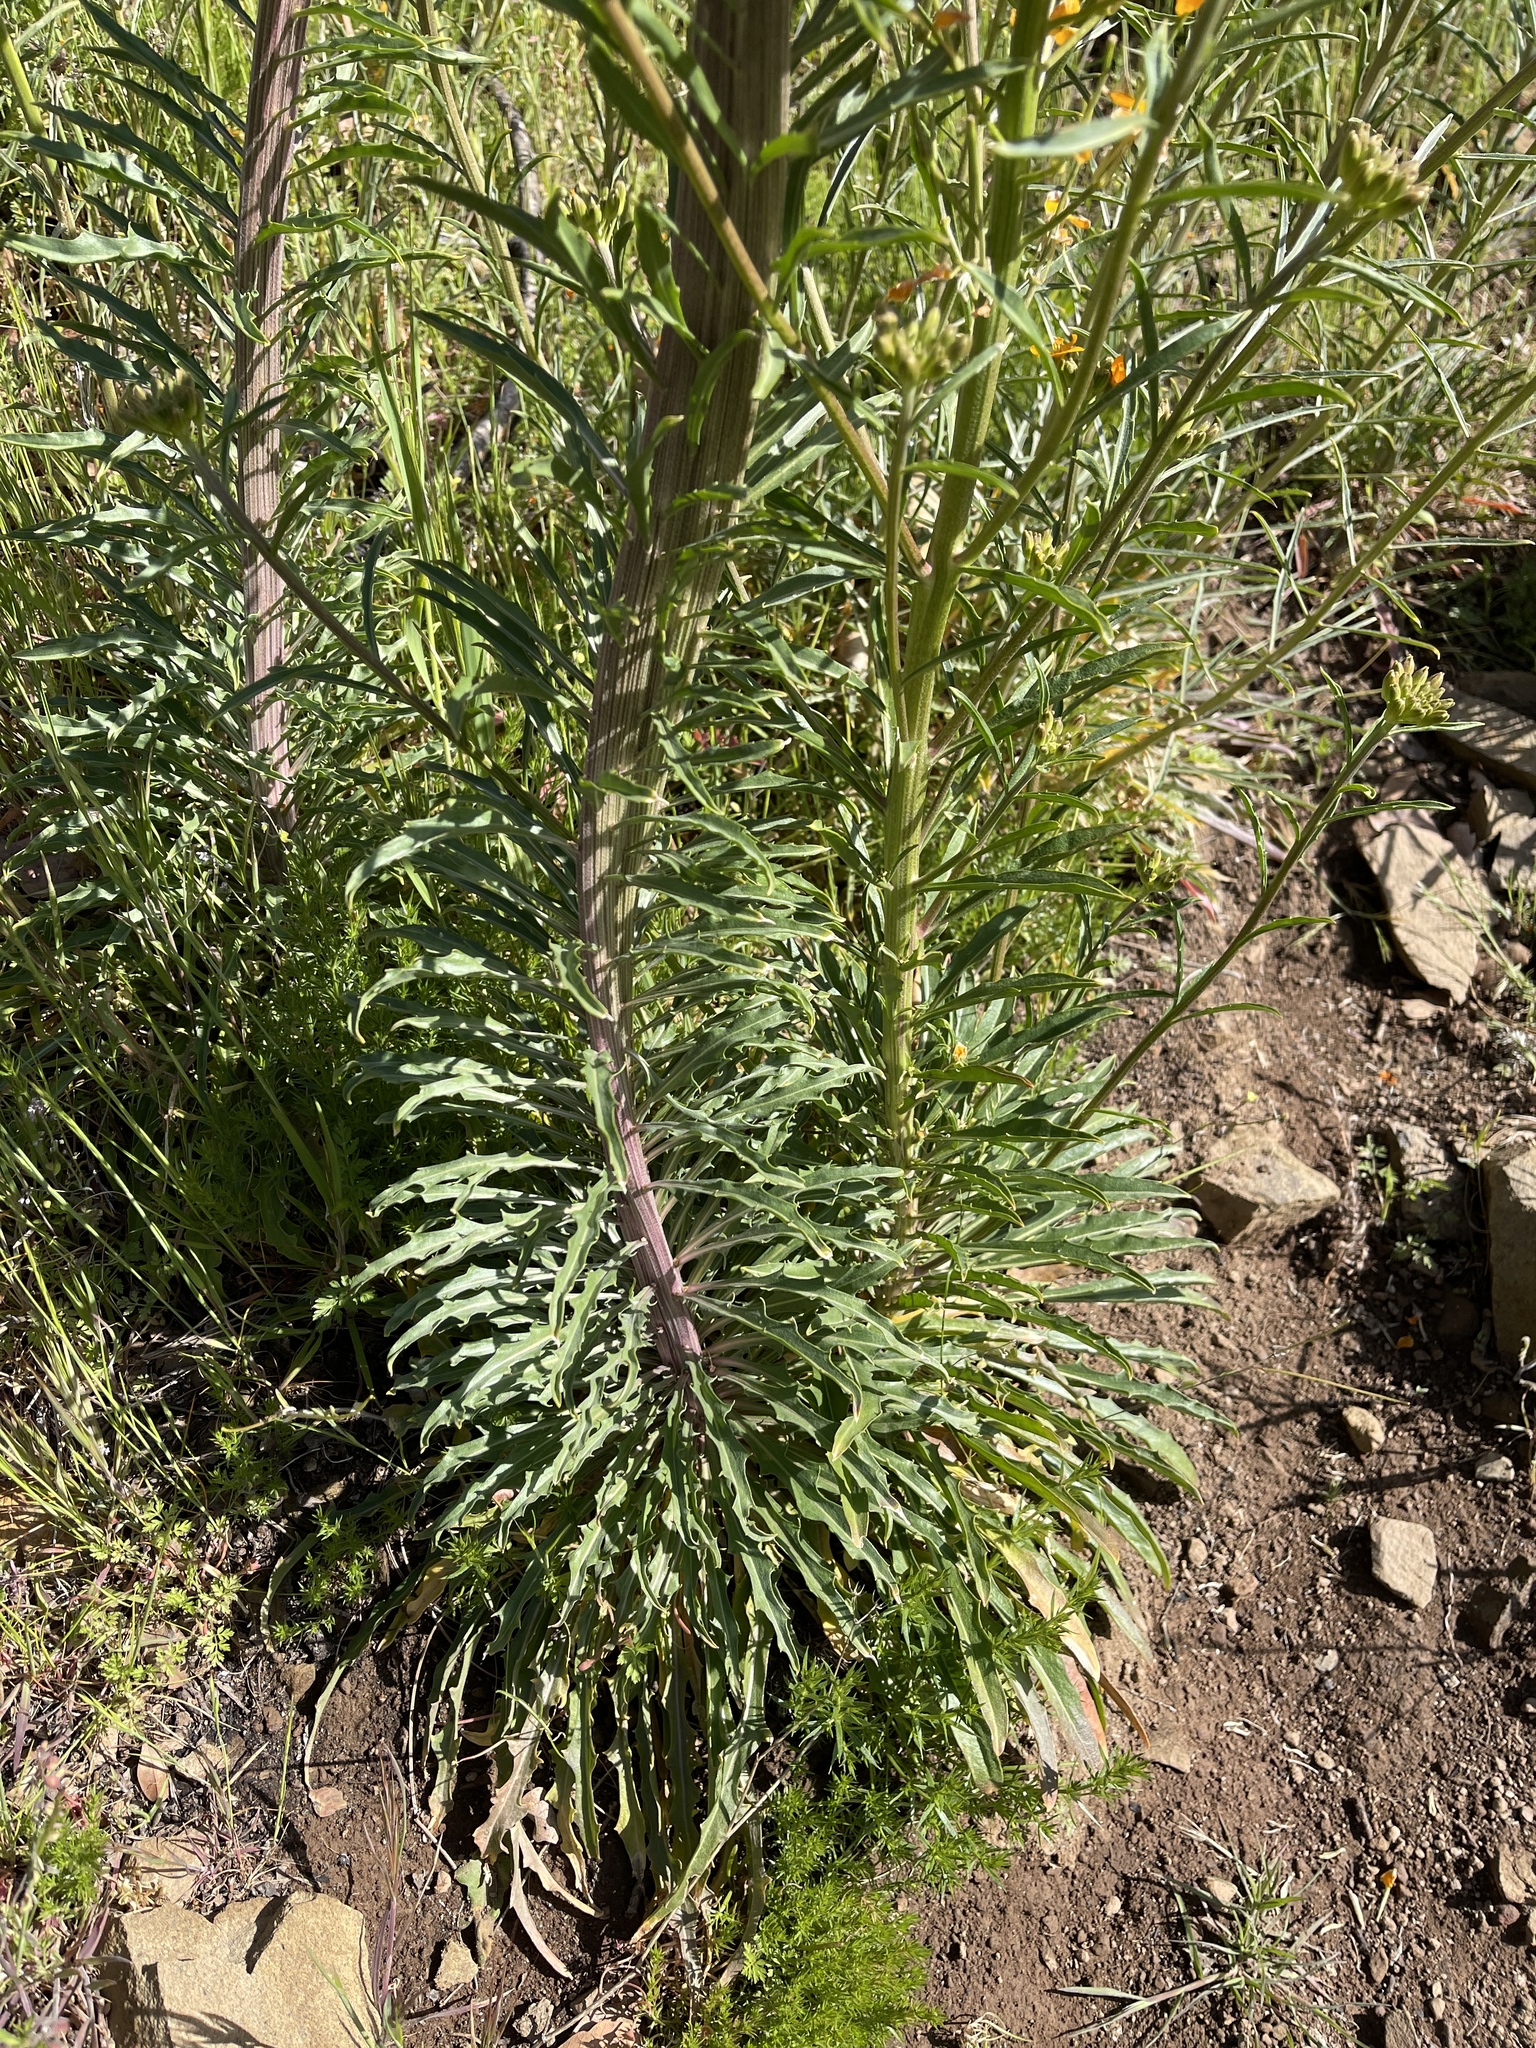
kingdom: Plantae
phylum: Tracheophyta
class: Magnoliopsida
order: Brassicales
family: Brassicaceae
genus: Erysimum
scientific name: Erysimum capitatum
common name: Western wallflower
